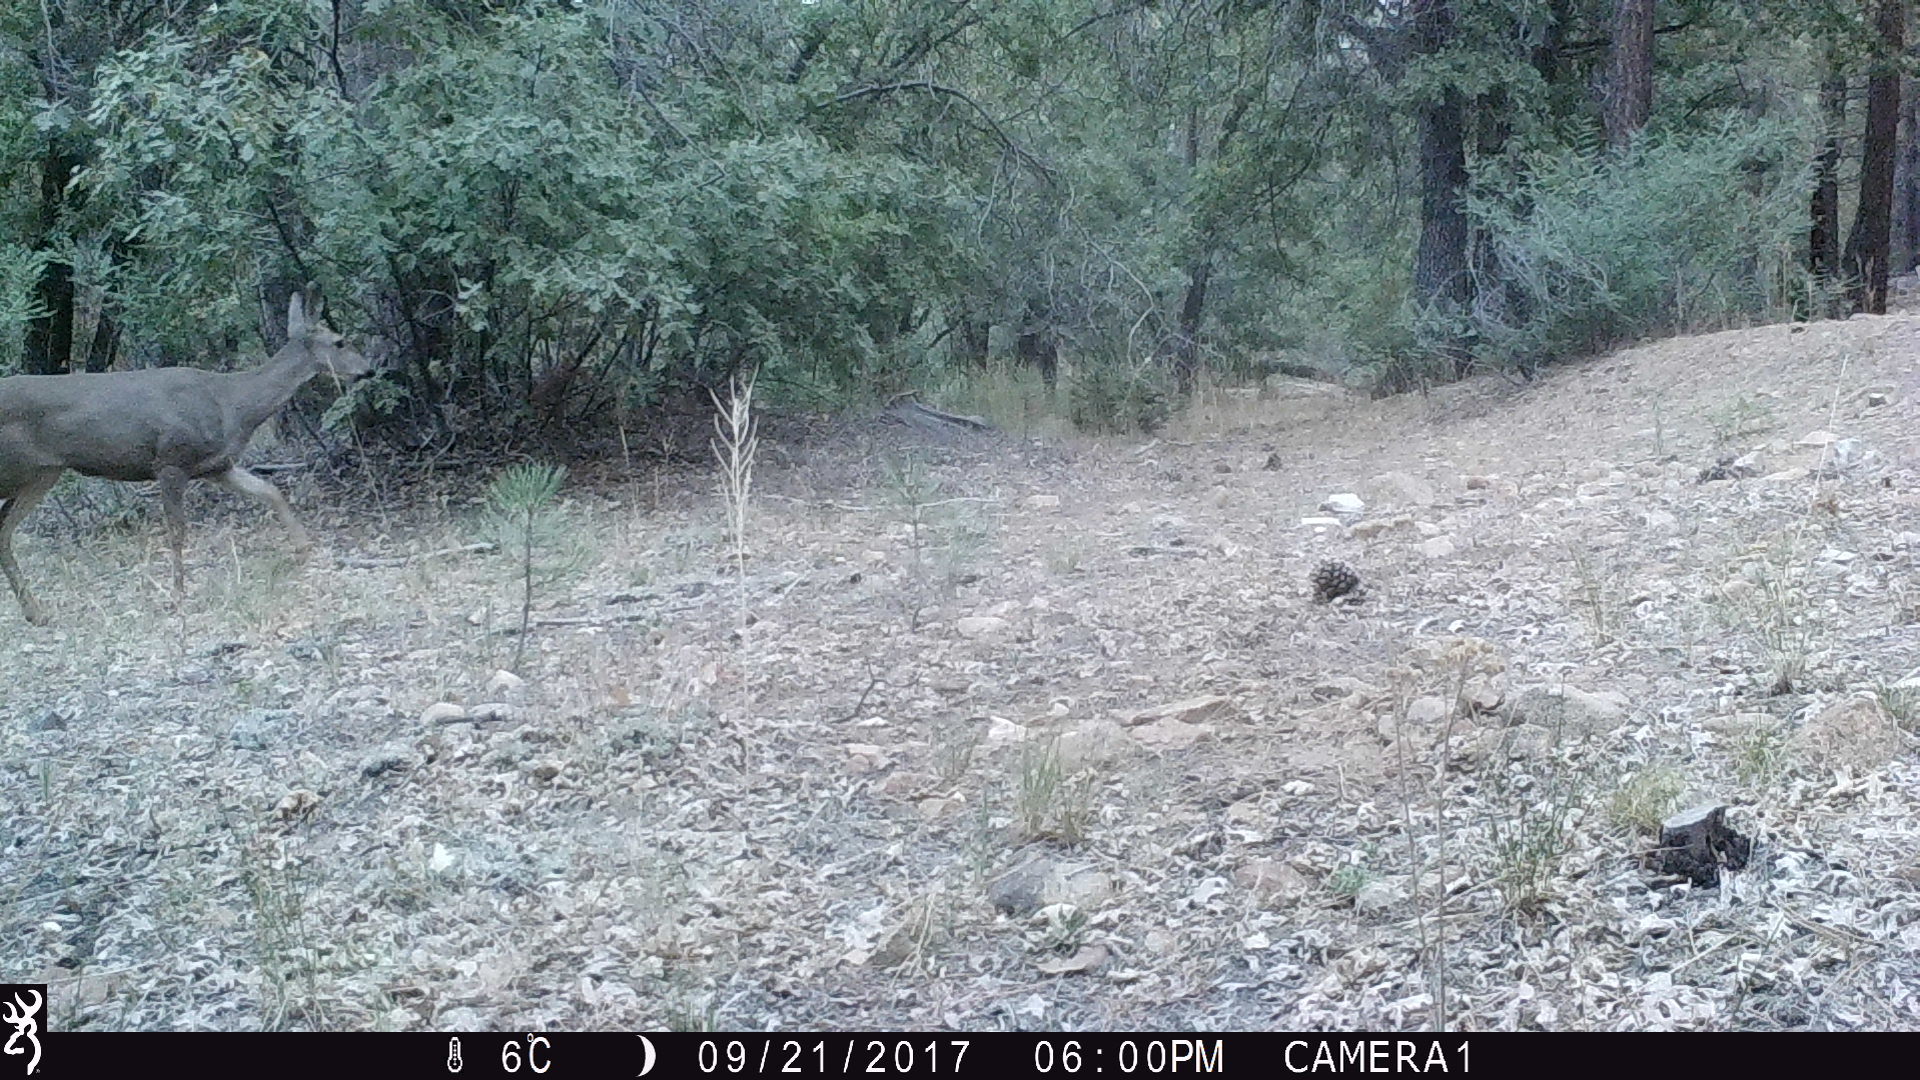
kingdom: Animalia
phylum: Chordata
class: Mammalia
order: Artiodactyla
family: Cervidae
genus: Odocoileus
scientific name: Odocoileus hemionus
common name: Mule deer
